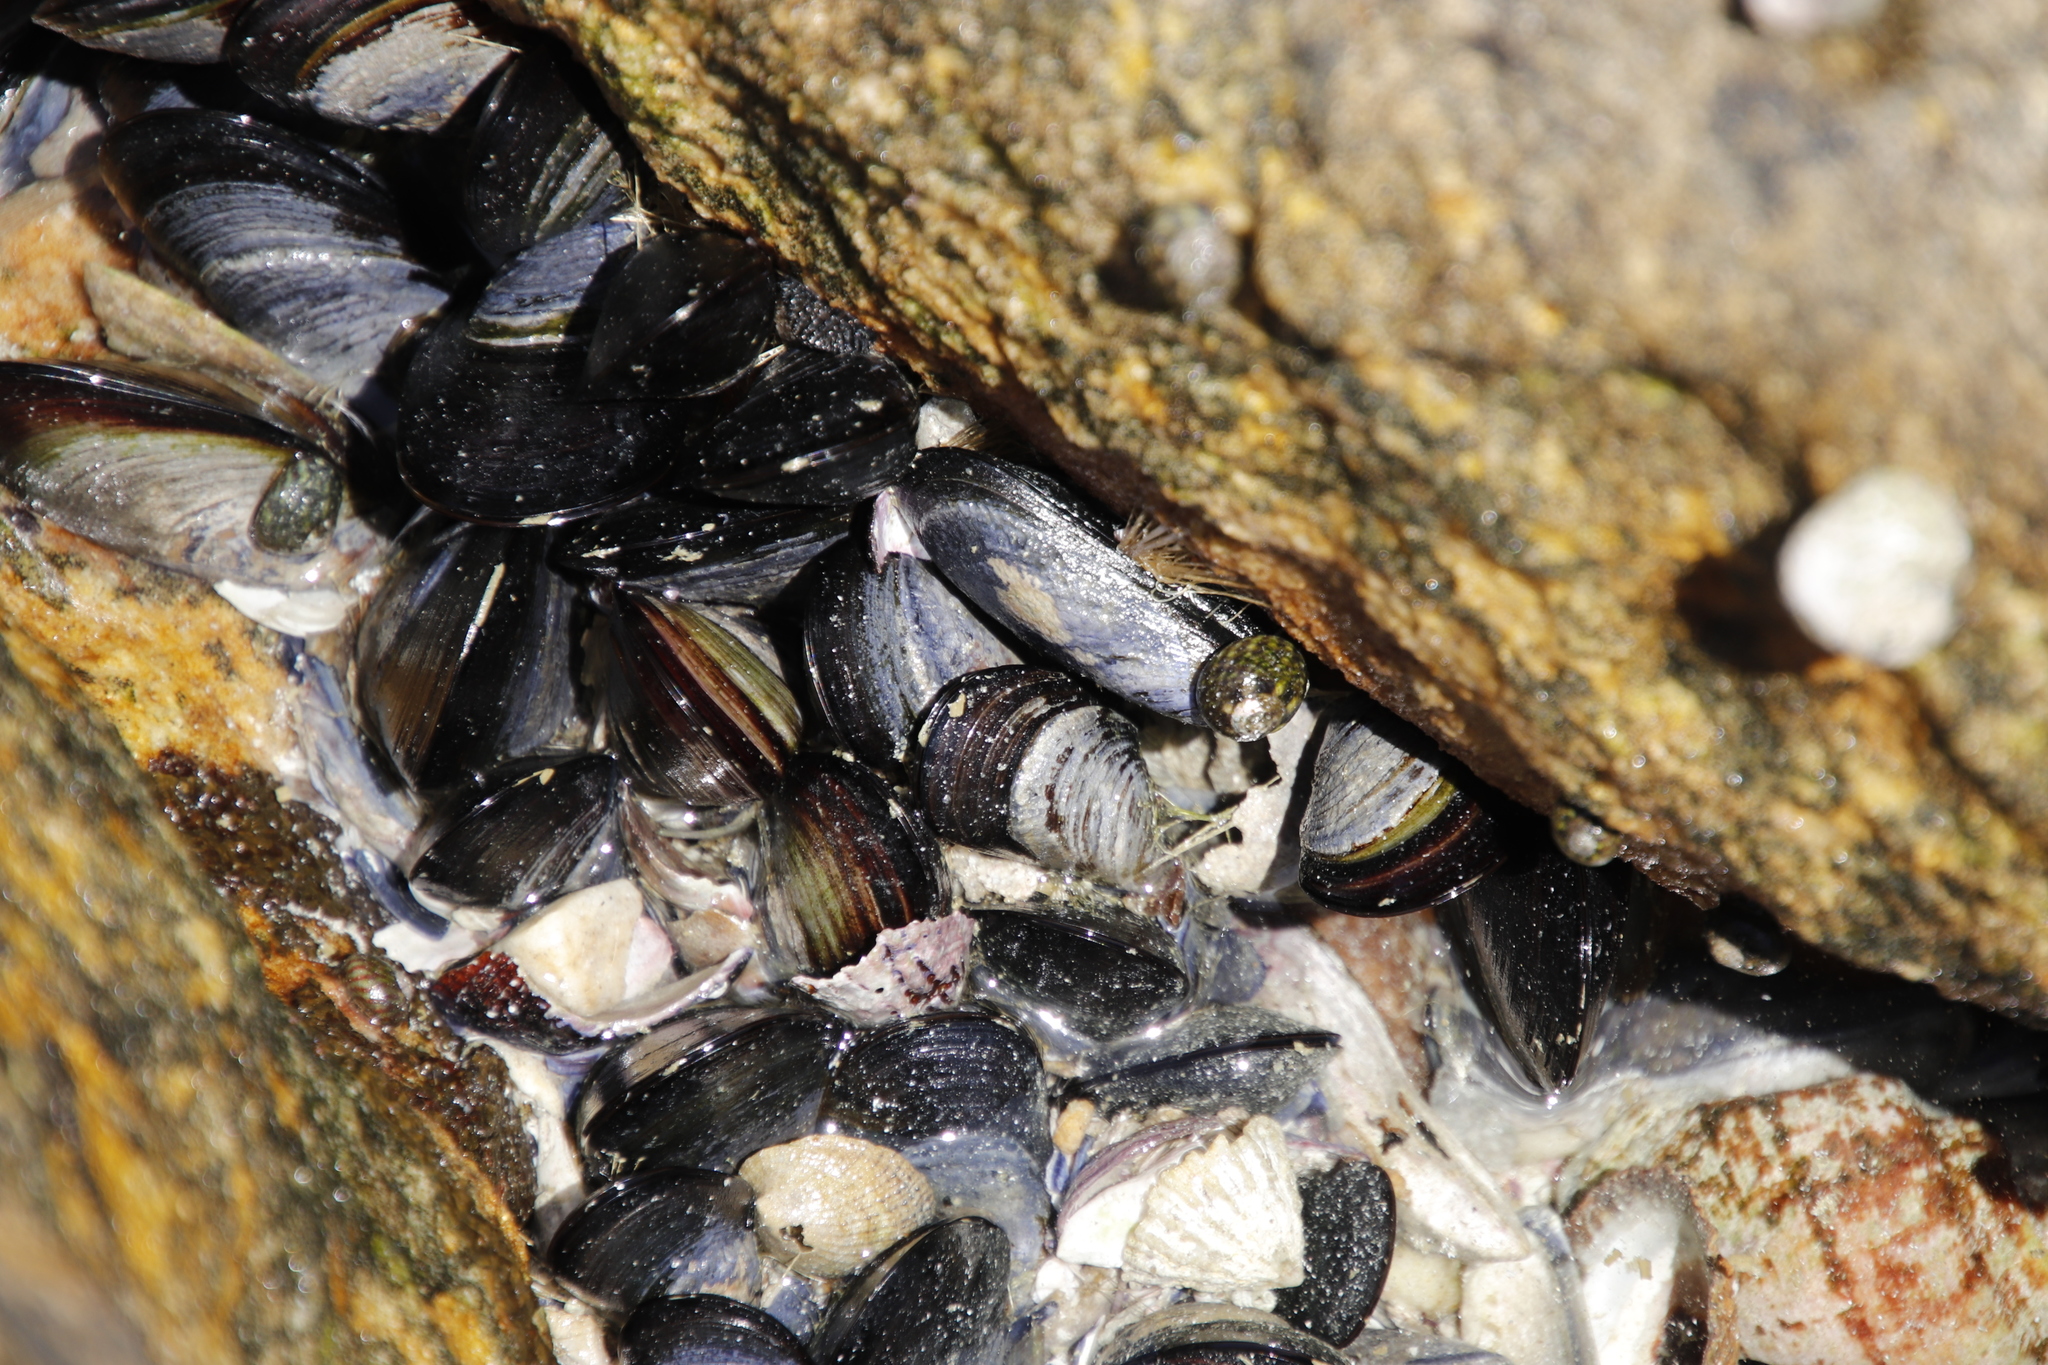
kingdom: Animalia
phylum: Mollusca
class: Bivalvia
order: Mytilida
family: Mytilidae
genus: Mytilus
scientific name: Mytilus galloprovincialis
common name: Mediterranean mussel
